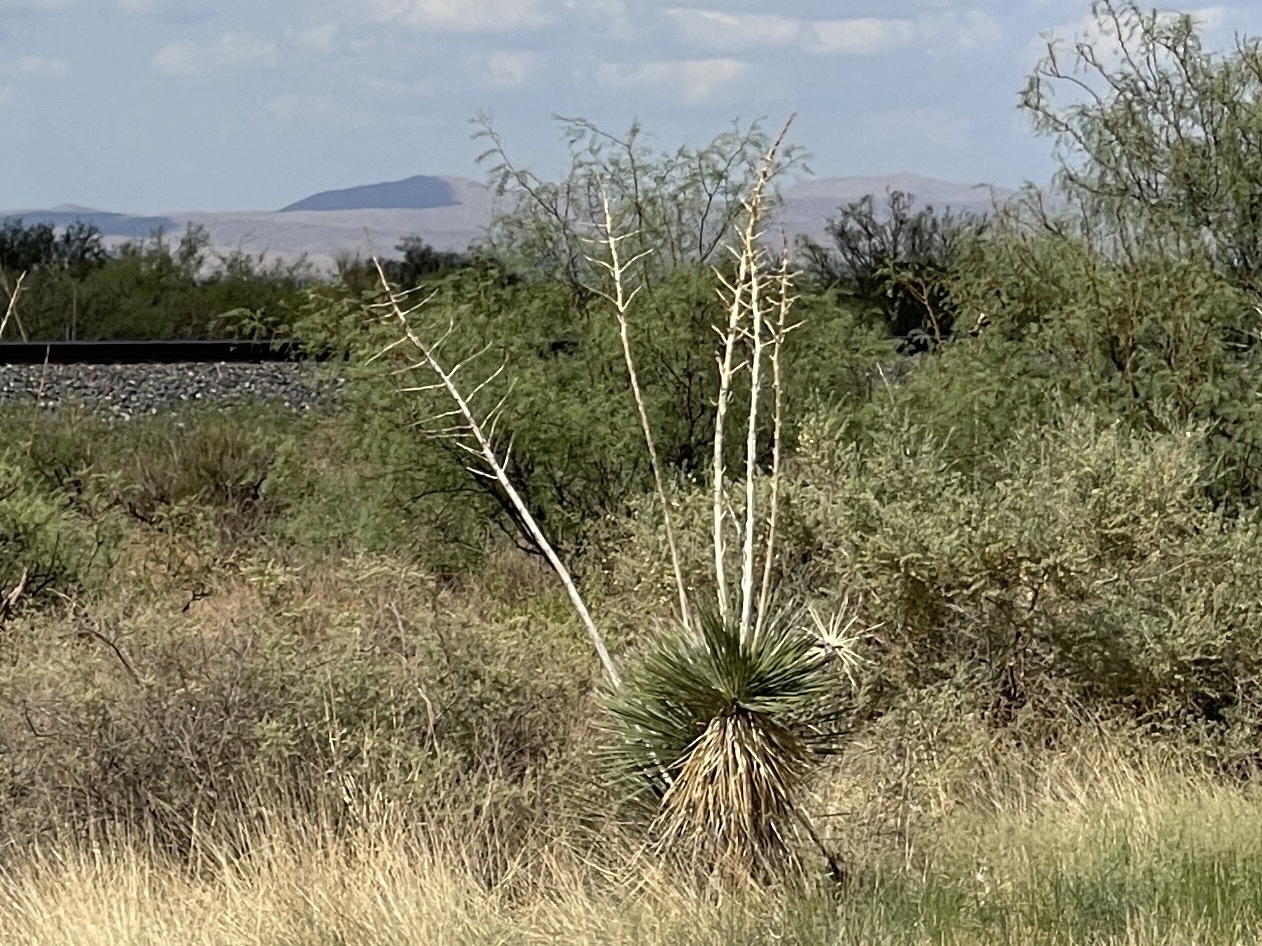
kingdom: Plantae
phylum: Tracheophyta
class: Liliopsida
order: Asparagales
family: Asparagaceae
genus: Yucca
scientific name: Yucca elata
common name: Palmella
